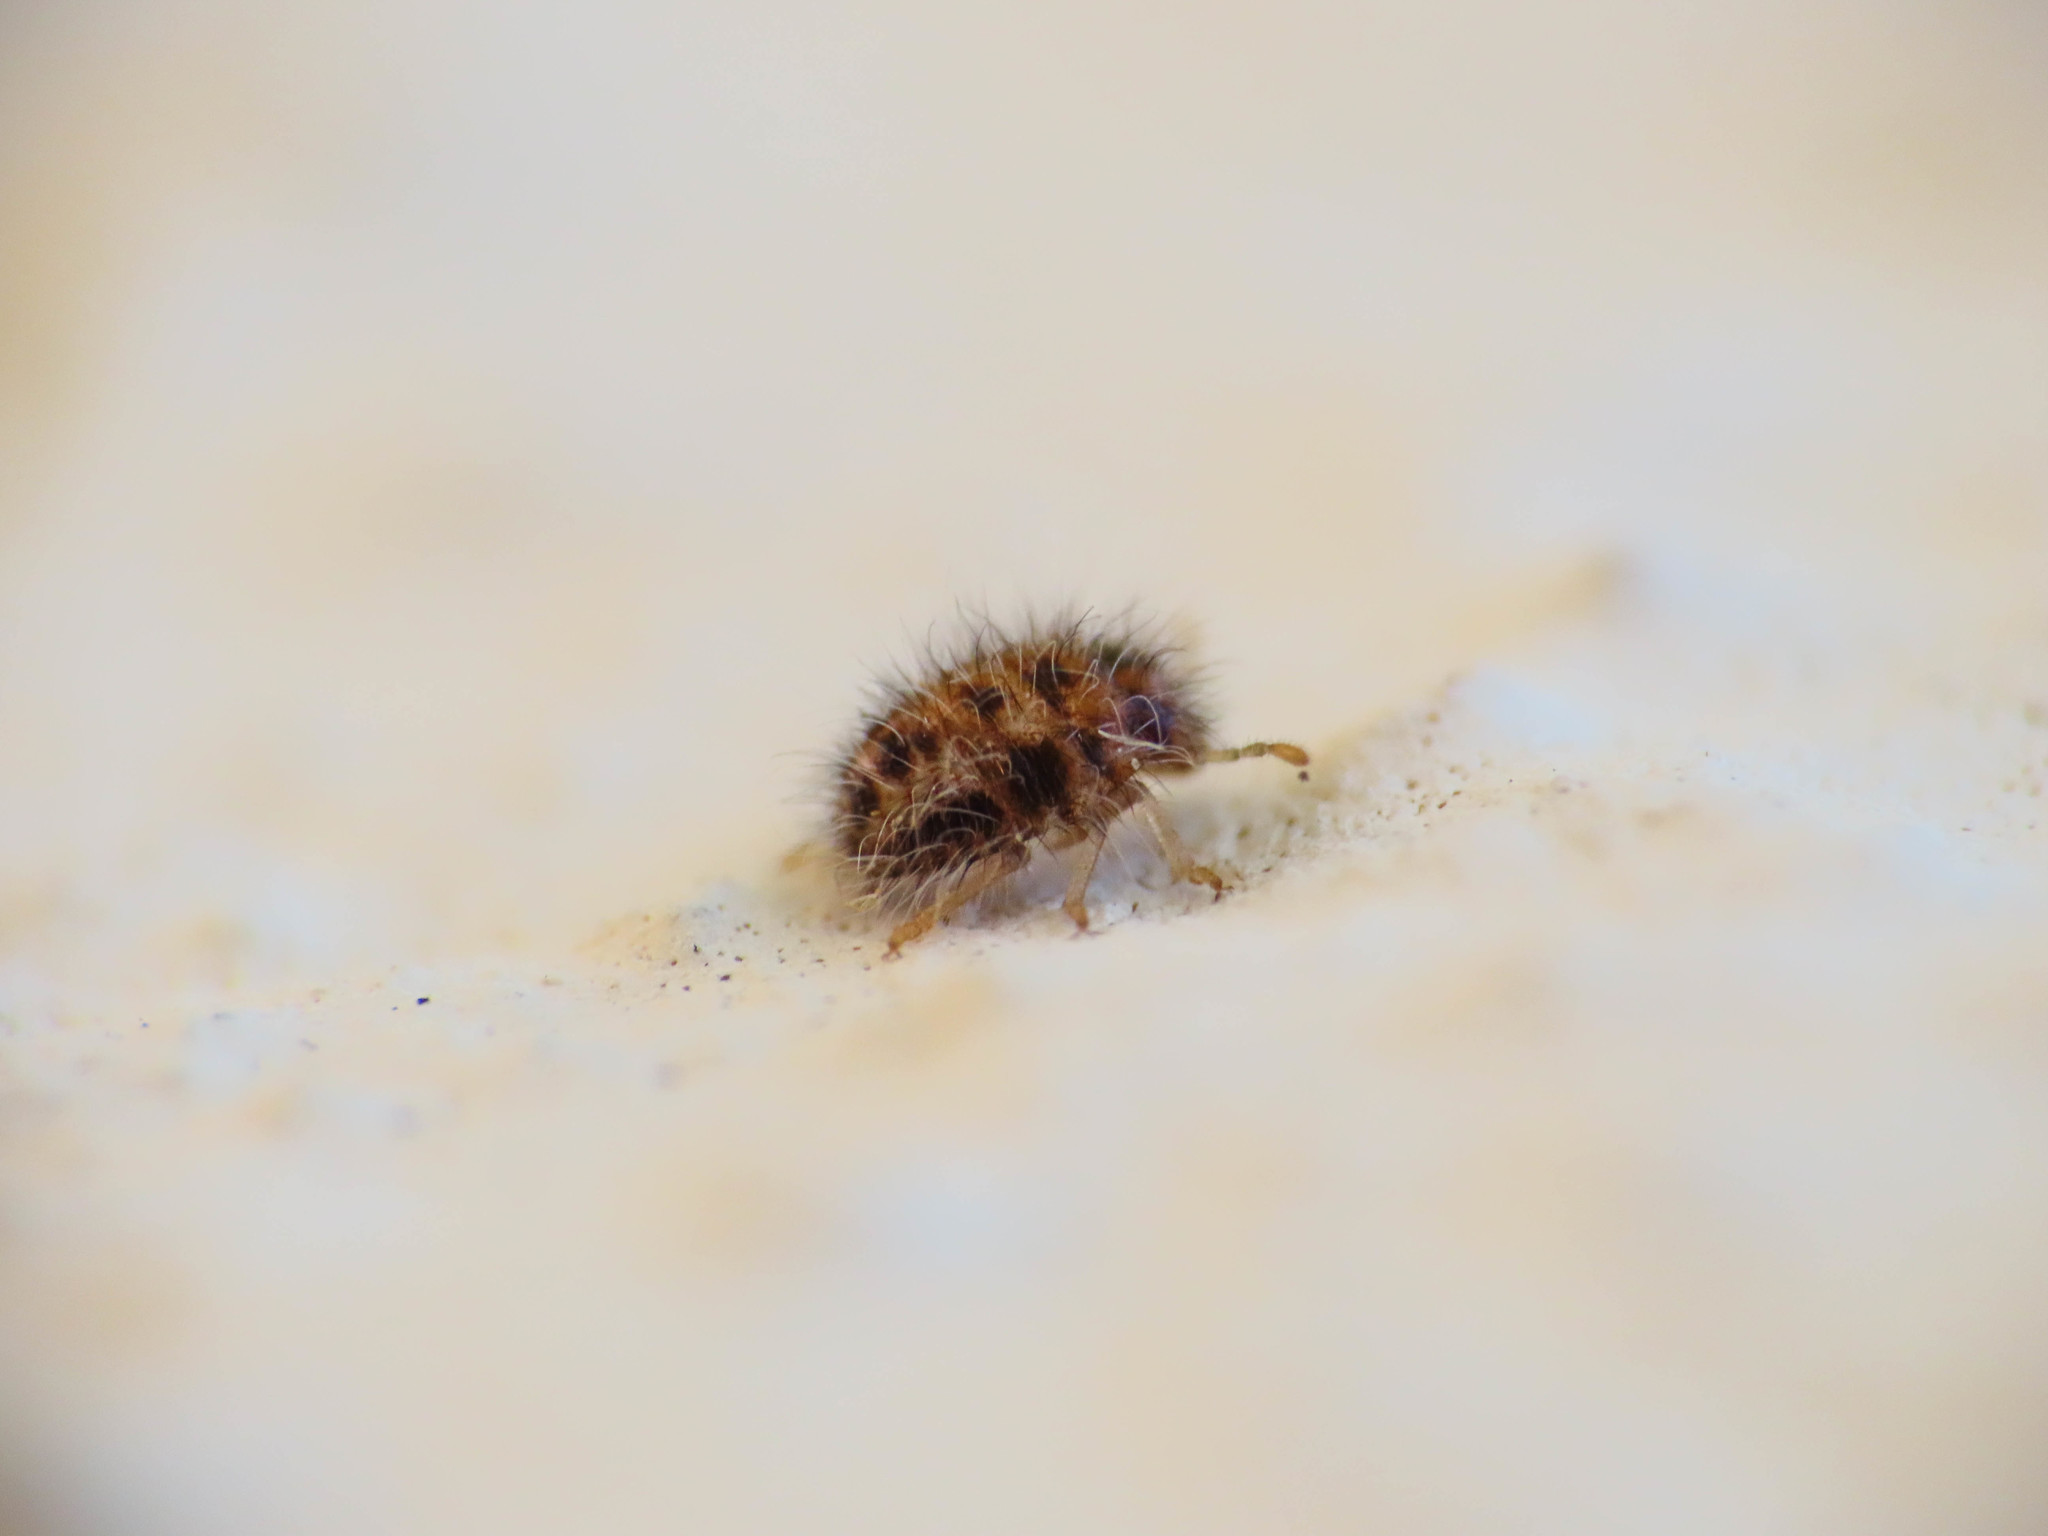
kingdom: Animalia
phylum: Arthropoda
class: Insecta
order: Hemiptera
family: Pentatomidae
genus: Staria
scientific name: Staria lunata
